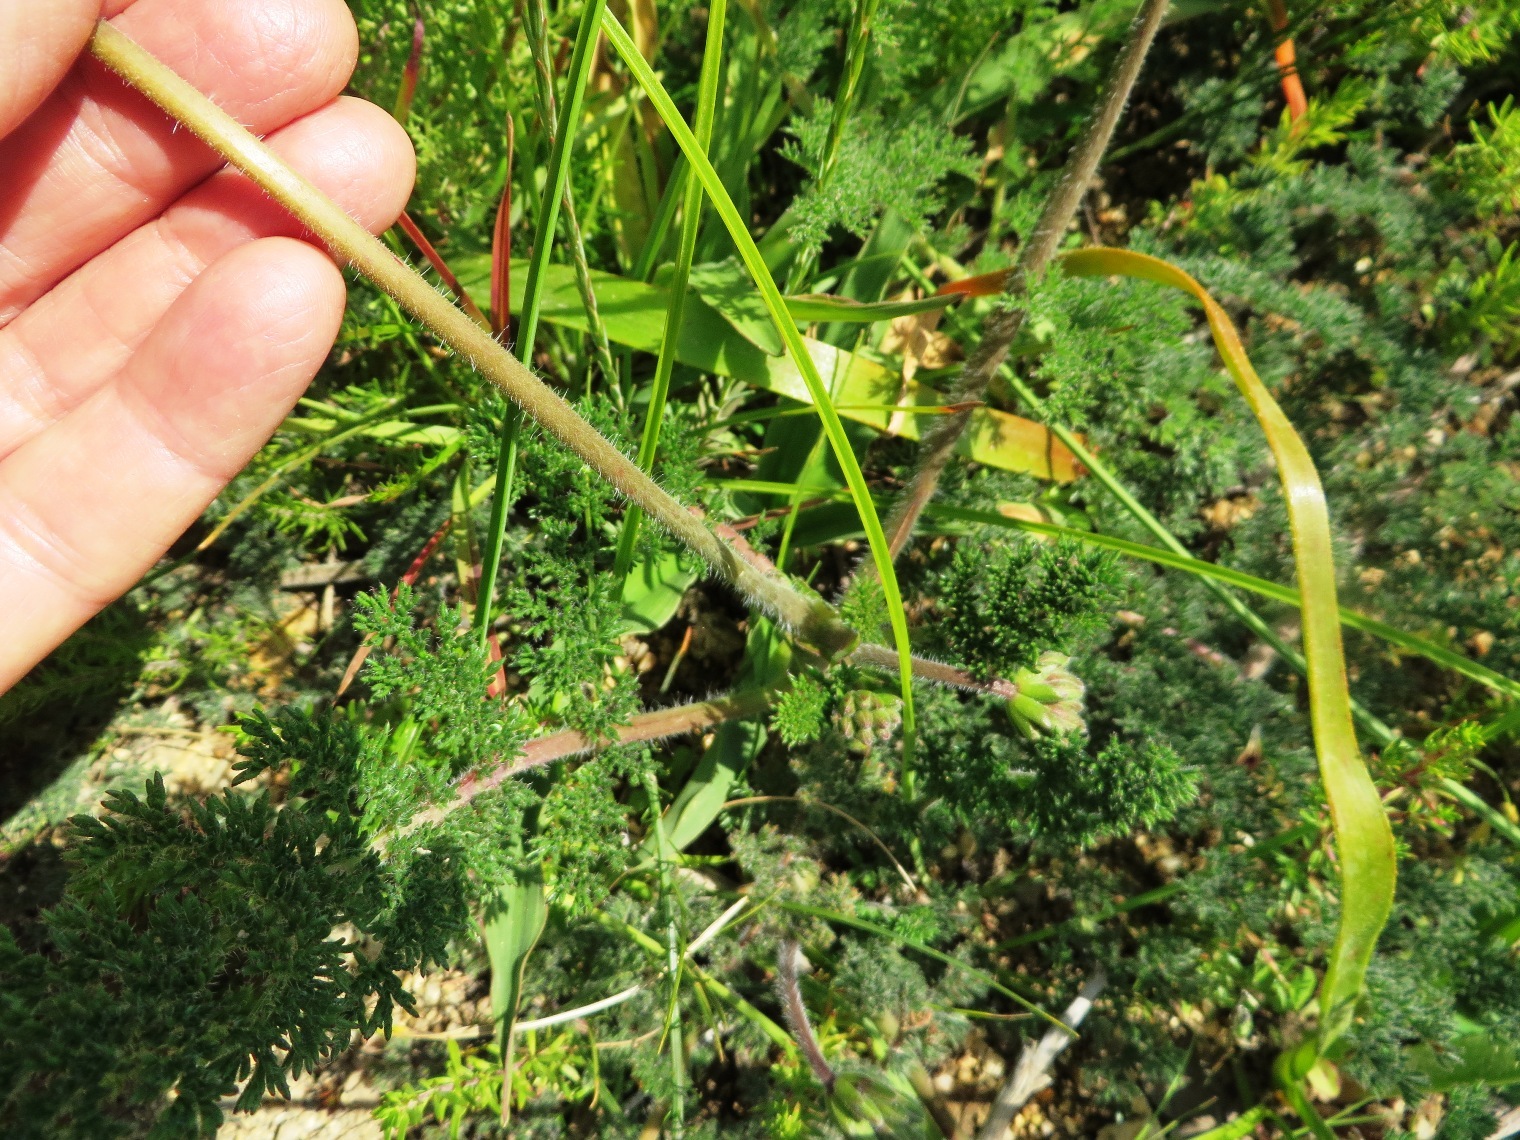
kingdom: Plantae
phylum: Tracheophyta
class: Magnoliopsida
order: Geraniales
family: Geraniaceae
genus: Pelargonium
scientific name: Pelargonium triste
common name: Night-scent pelargonium
